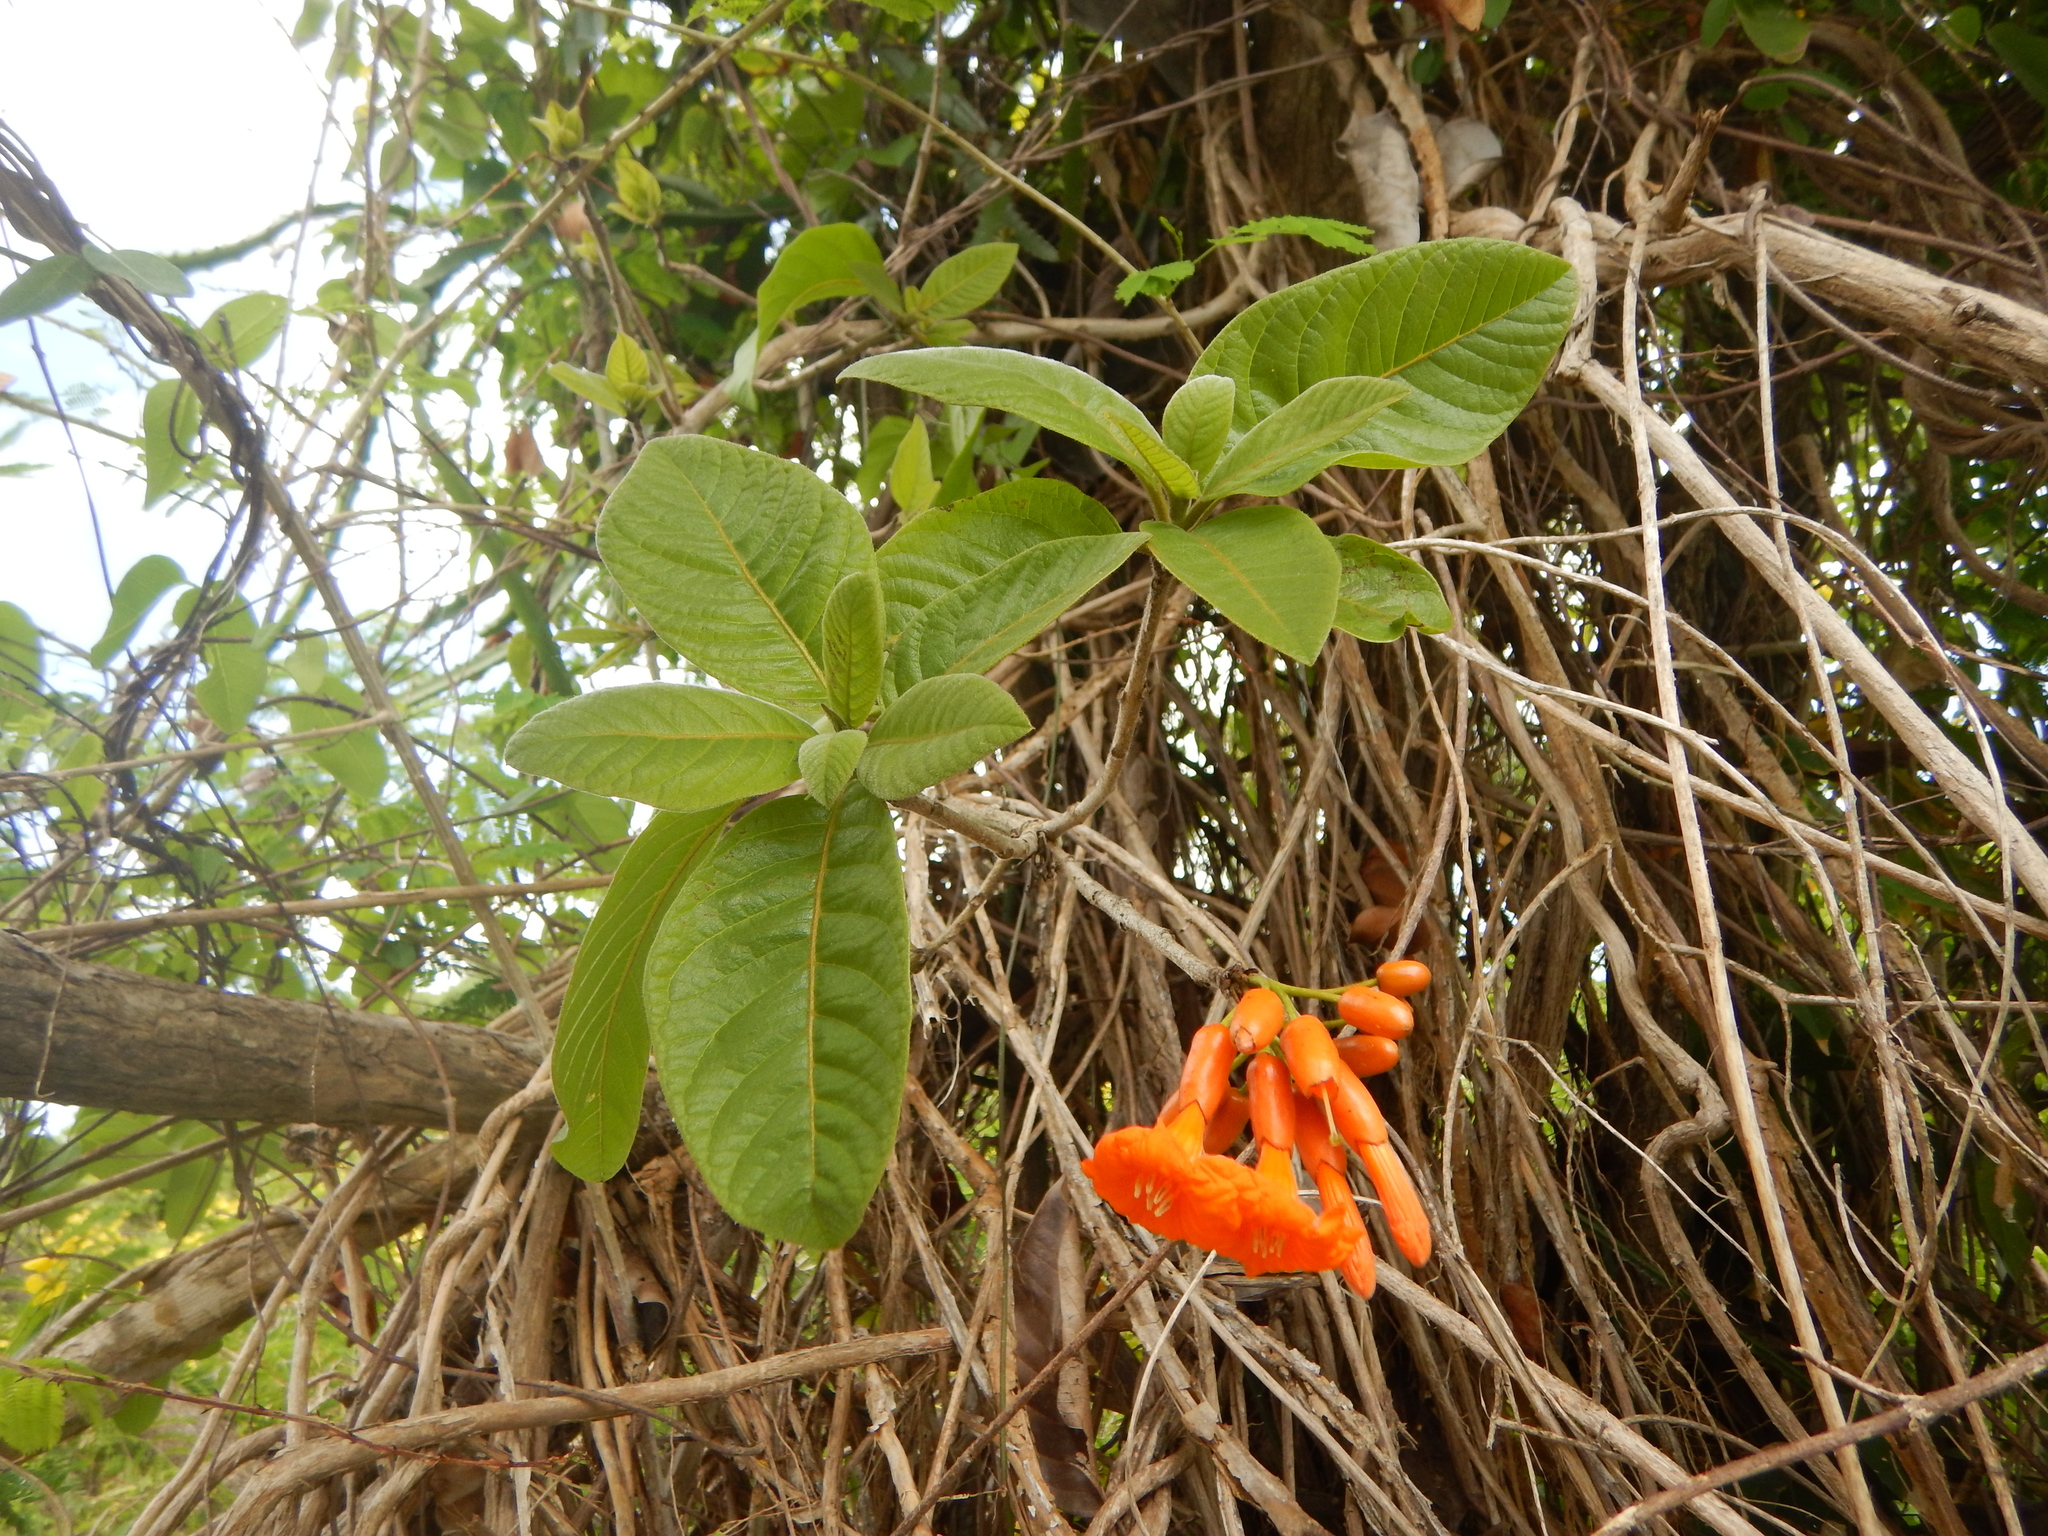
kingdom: Plantae
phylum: Tracheophyta
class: Magnoliopsida
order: Boraginales
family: Cordiaceae
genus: Cordia
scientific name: Cordia rickseckeri
